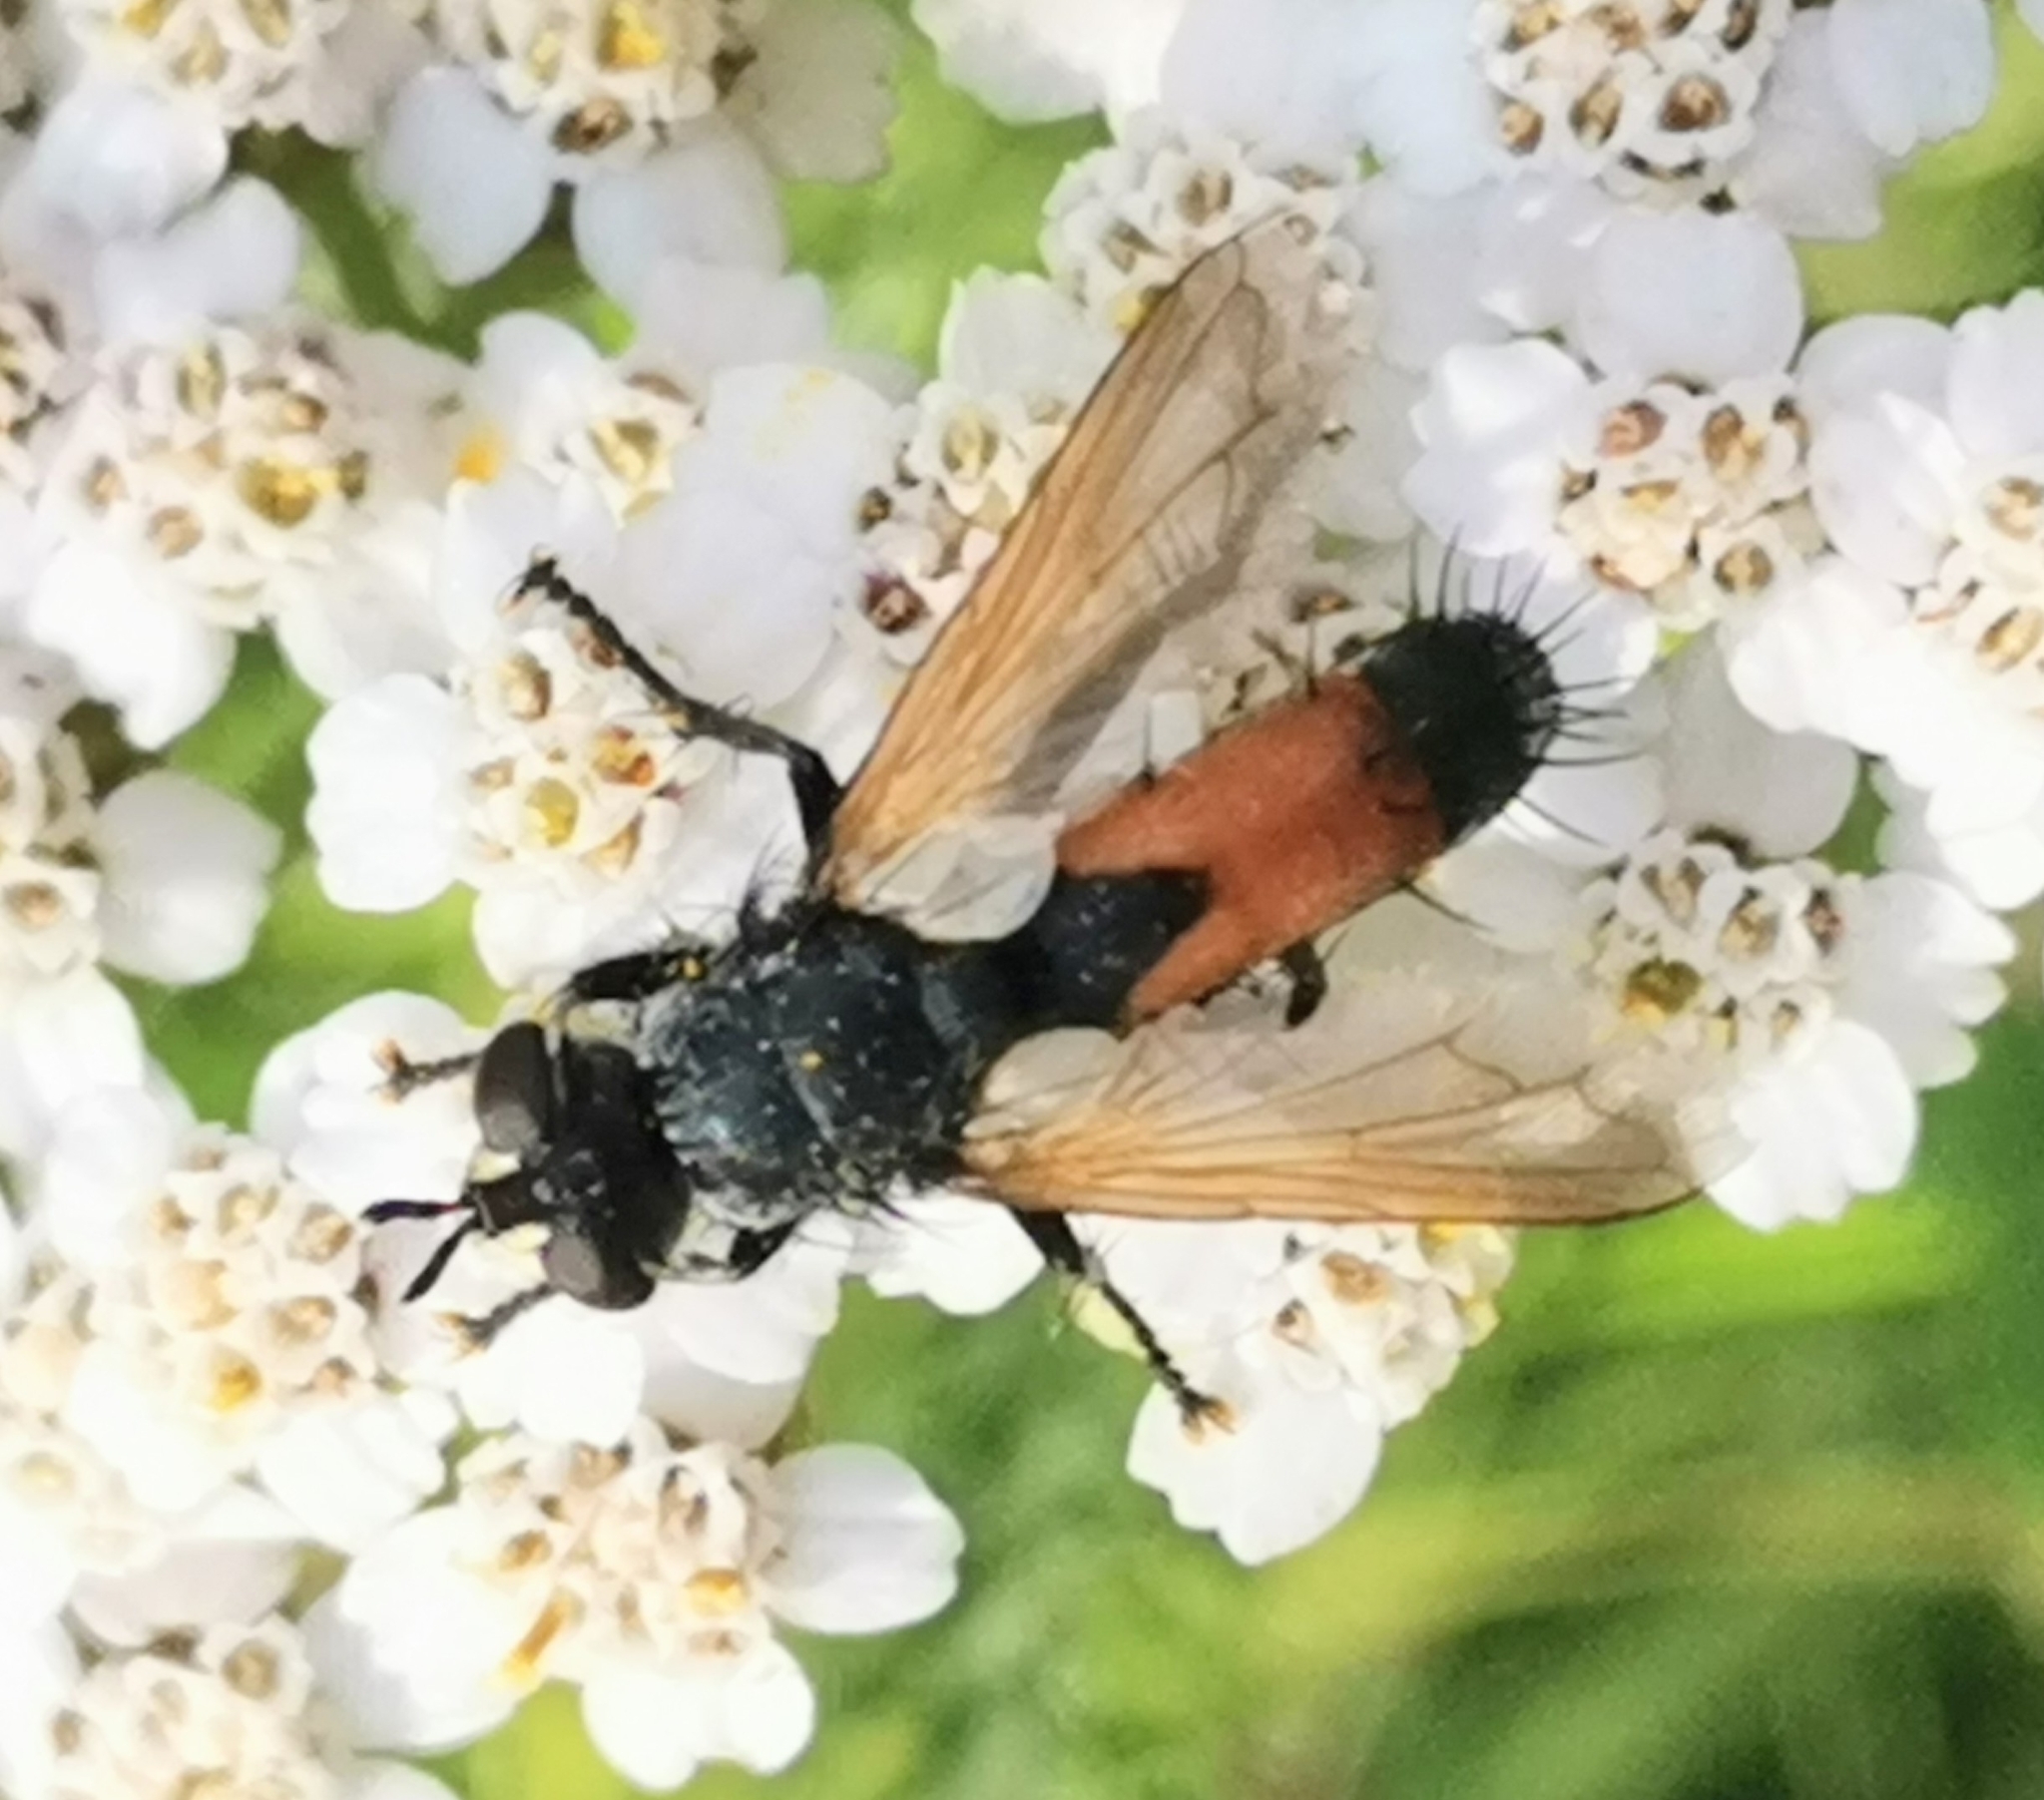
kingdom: Animalia
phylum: Arthropoda
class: Insecta
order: Diptera
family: Tachinidae
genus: Cylindromyia
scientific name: Cylindromyia brassicaria
